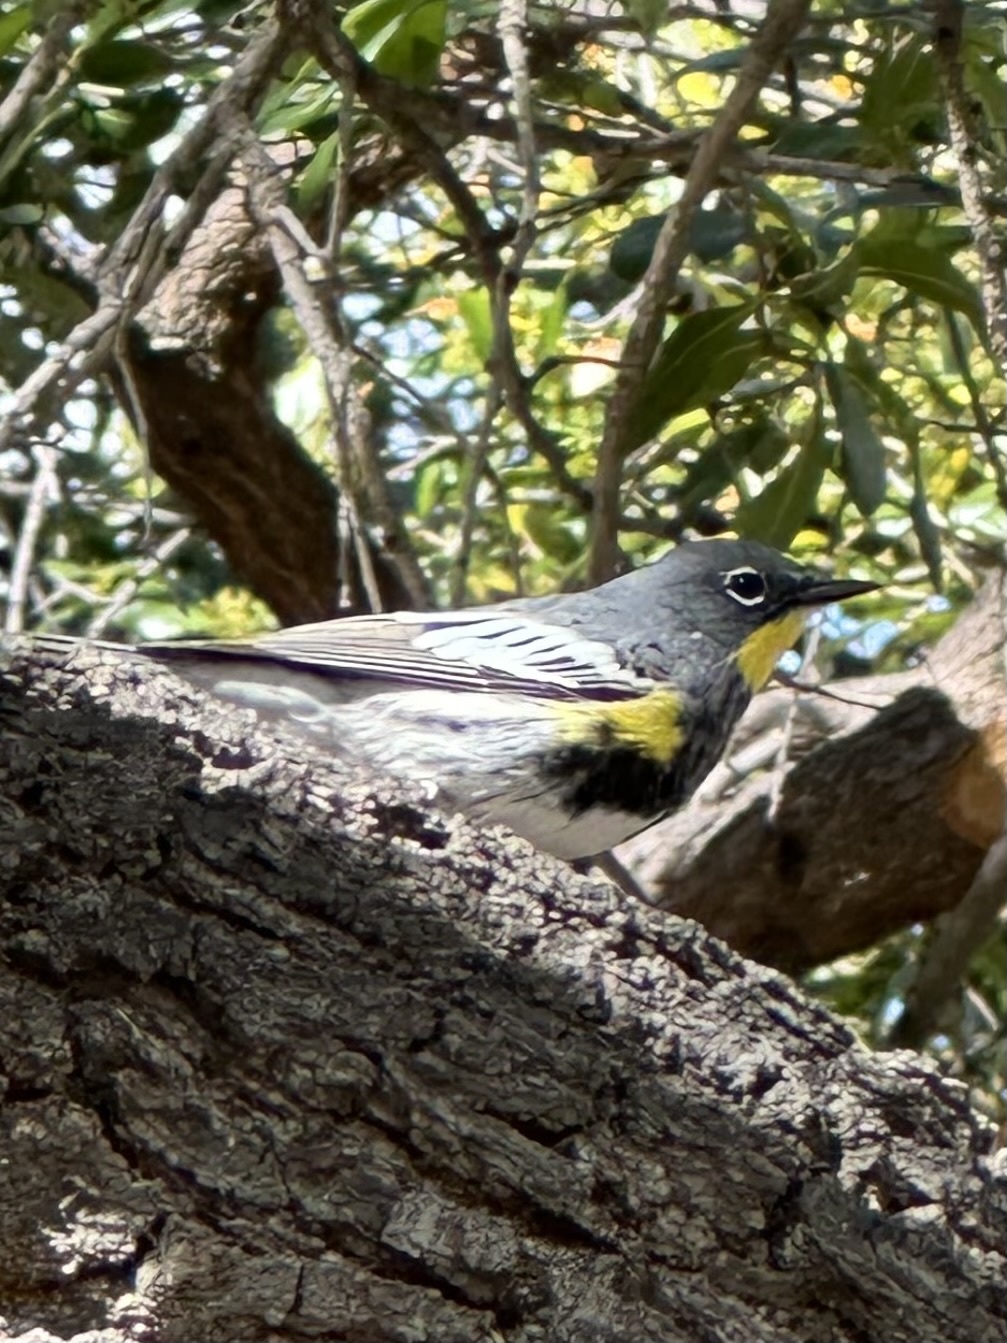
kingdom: Animalia
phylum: Chordata
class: Aves
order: Passeriformes
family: Parulidae
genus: Setophaga
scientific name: Setophaga coronata
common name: Myrtle warbler
